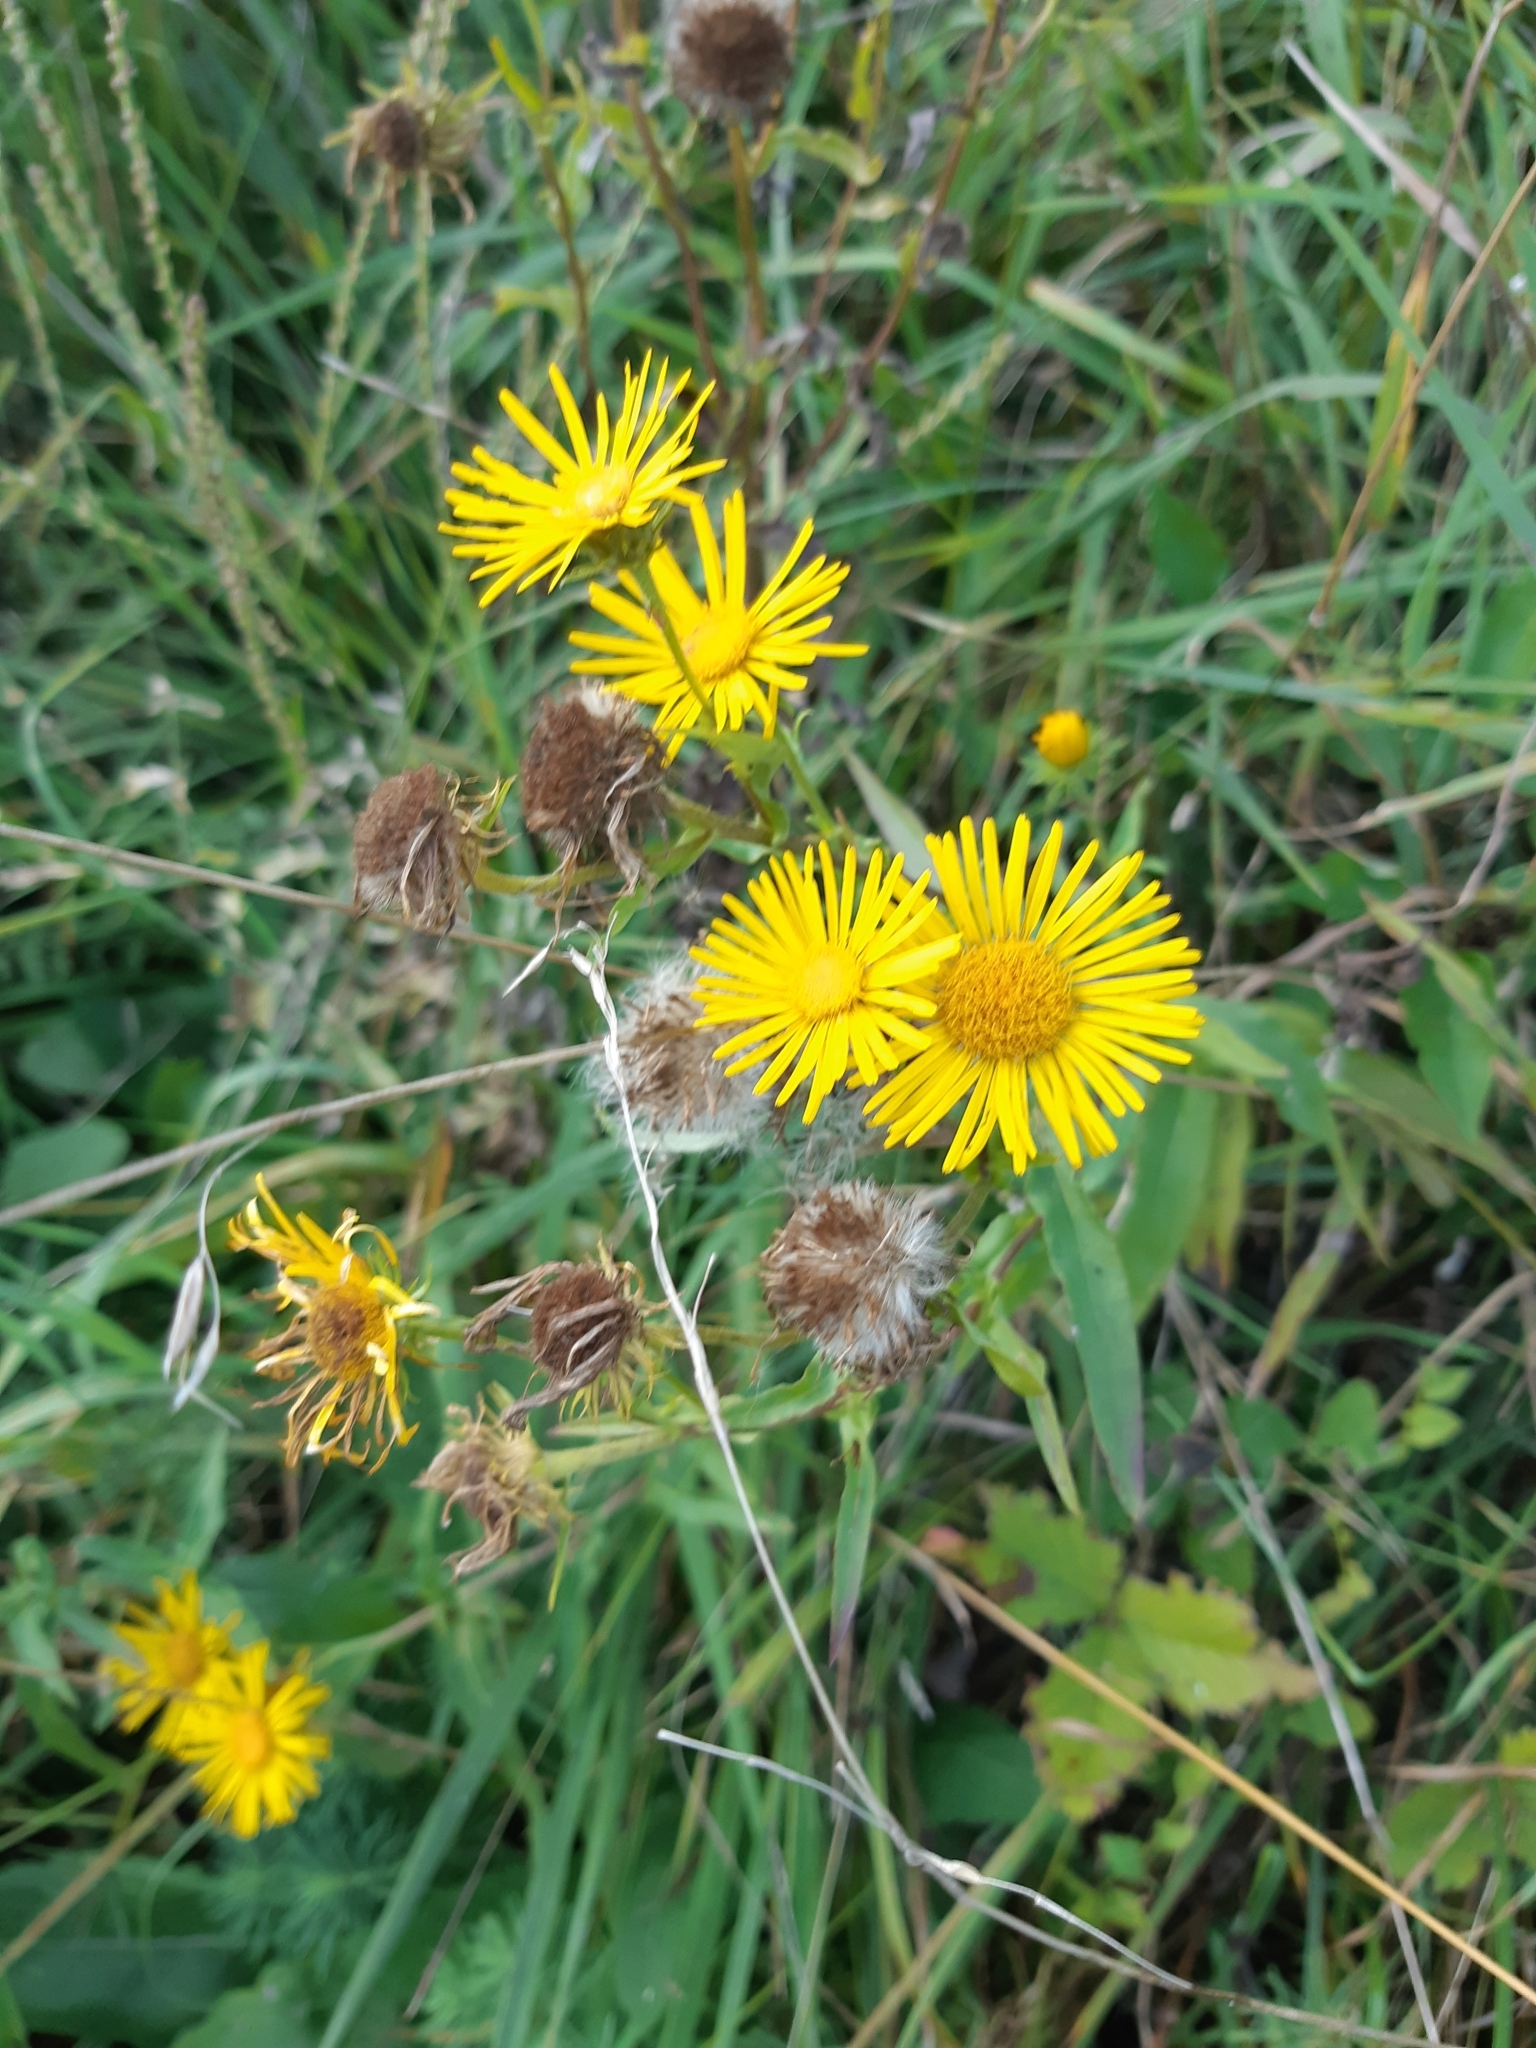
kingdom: Plantae
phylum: Tracheophyta
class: Magnoliopsida
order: Asterales
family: Asteraceae
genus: Pentanema
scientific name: Pentanema britannicum
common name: British elecampane
